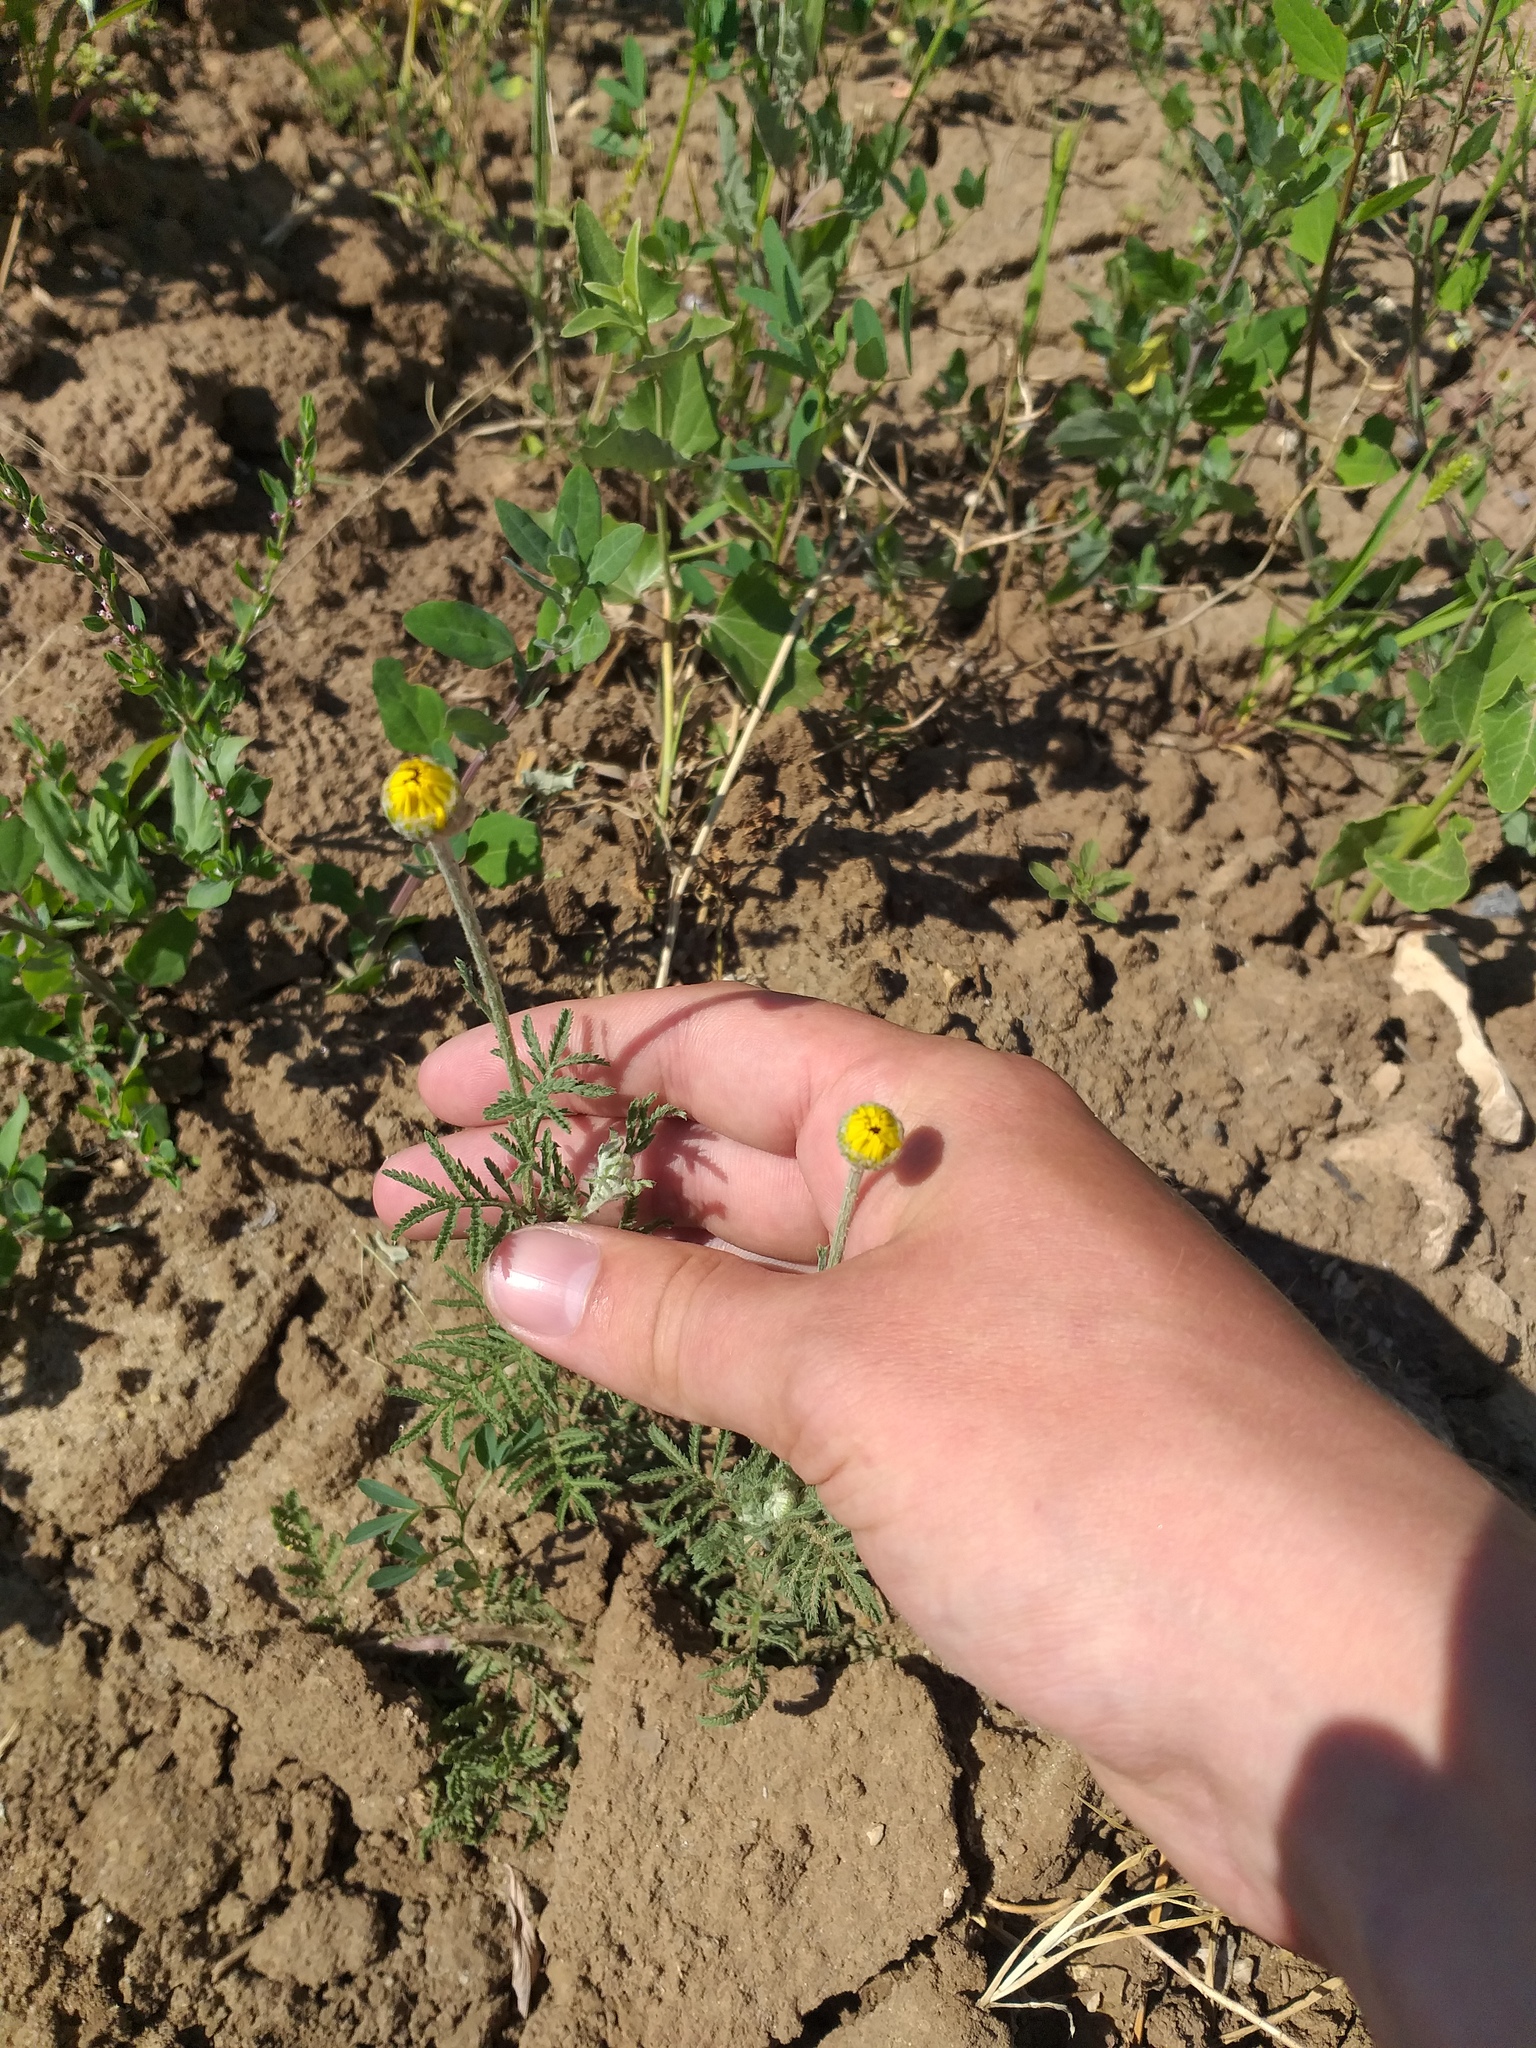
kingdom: Plantae
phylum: Tracheophyta
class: Magnoliopsida
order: Asterales
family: Asteraceae
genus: Cota
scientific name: Cota tinctoria
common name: Golden chamomile
